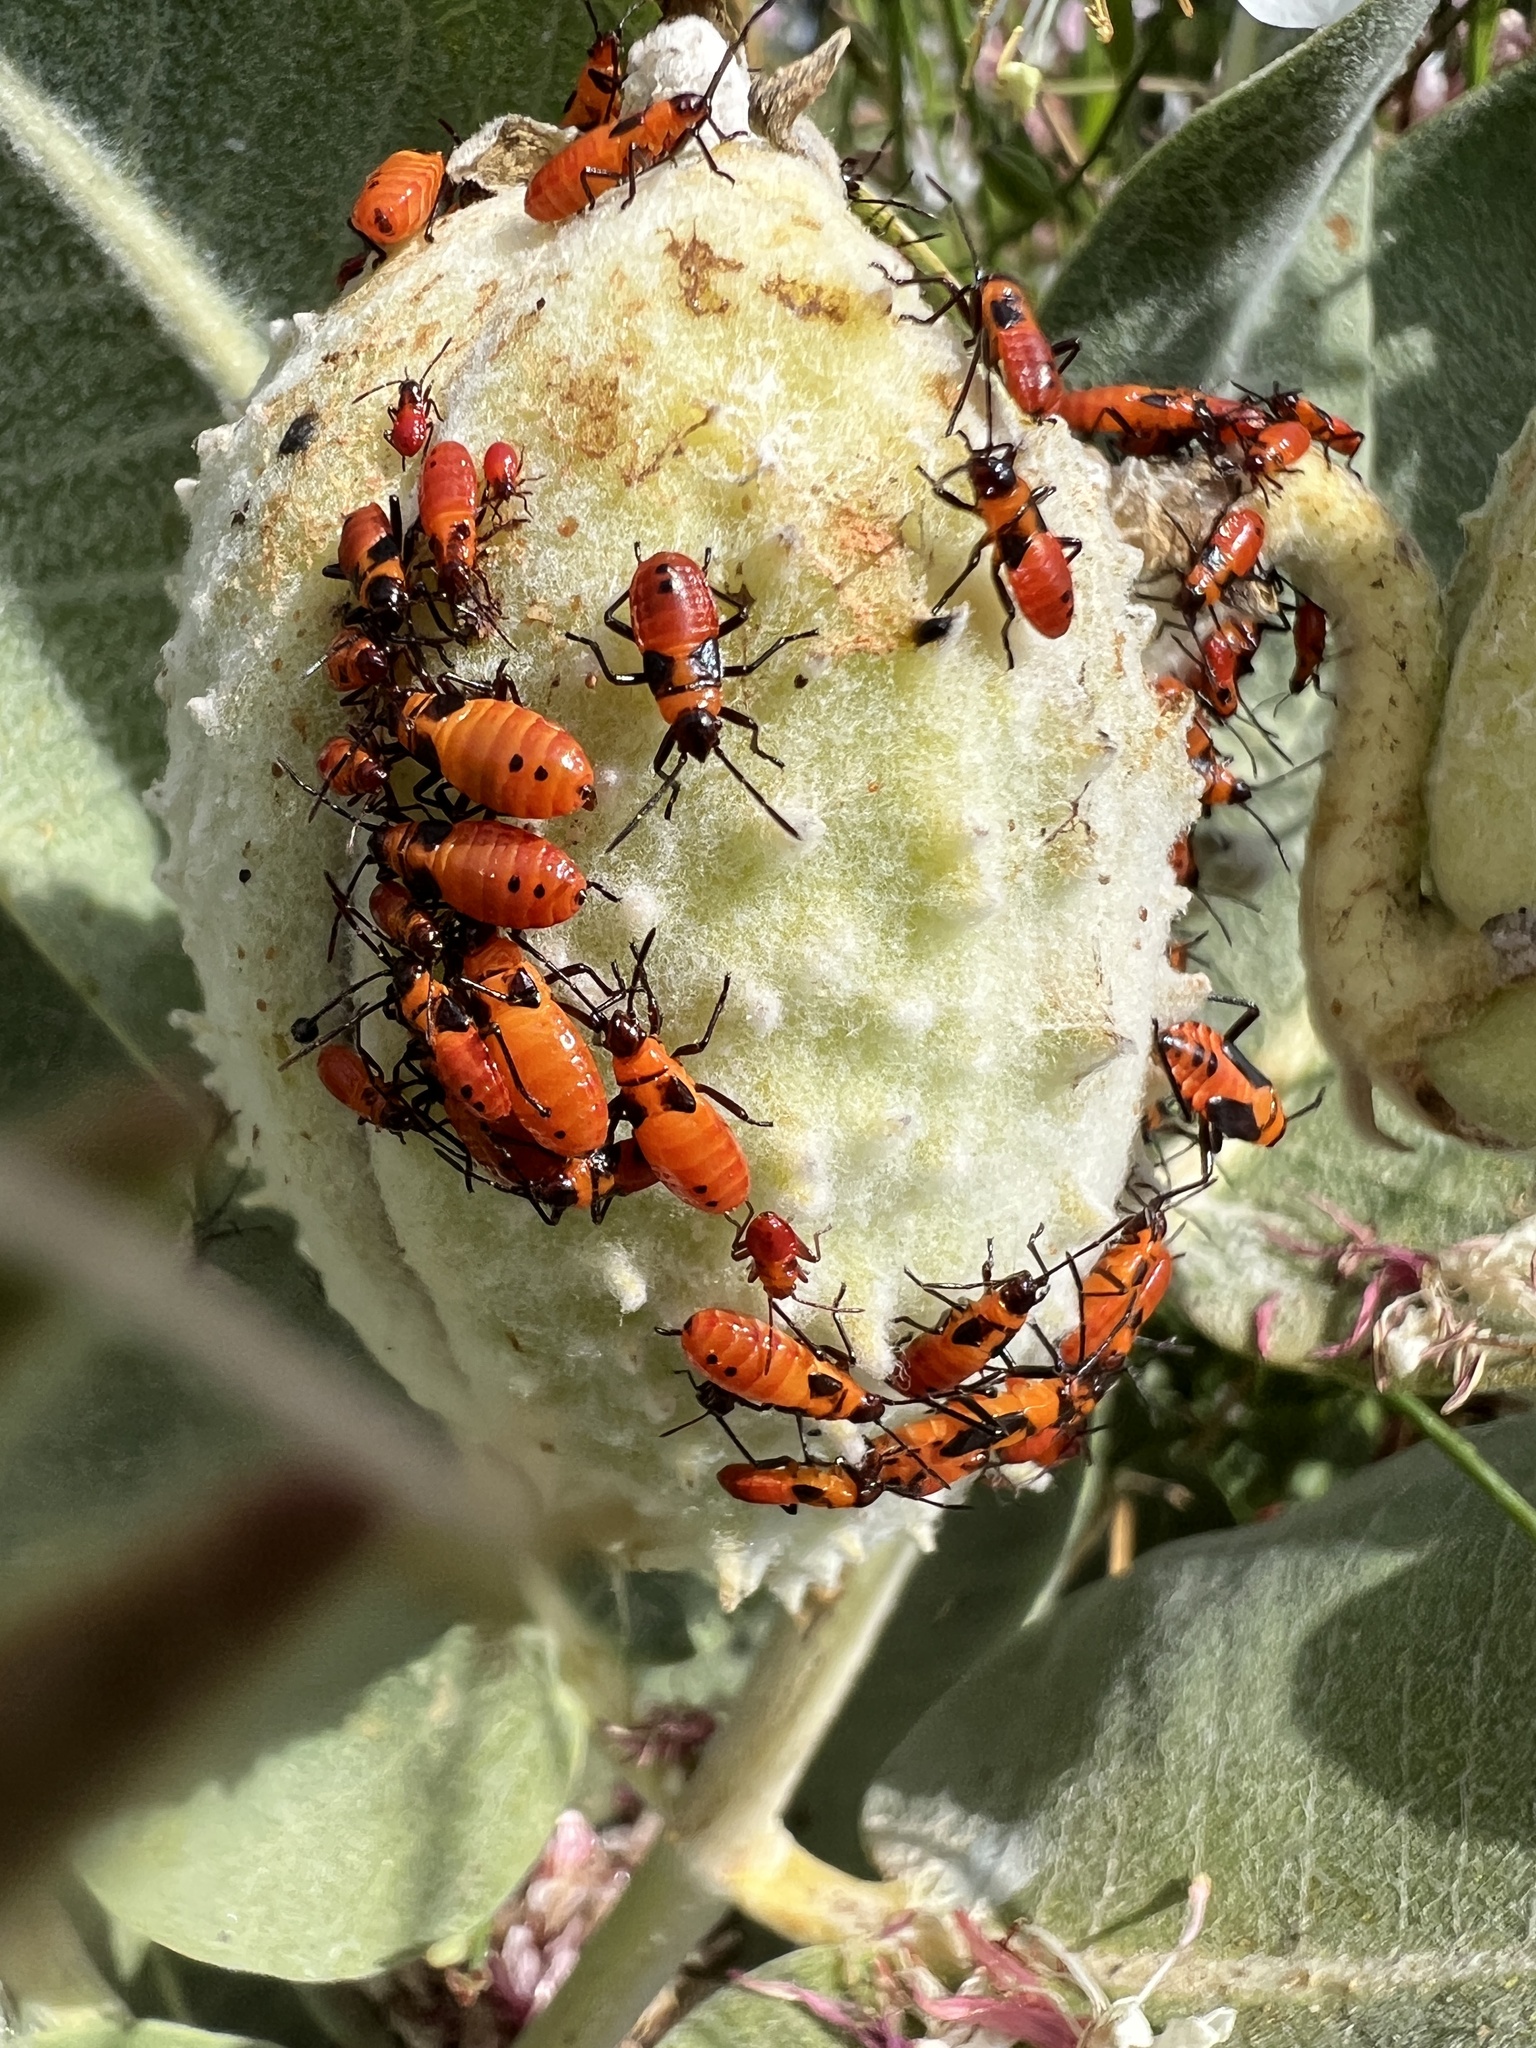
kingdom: Animalia
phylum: Arthropoda
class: Insecta
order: Hemiptera
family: Lygaeidae
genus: Oncopeltus
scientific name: Oncopeltus fasciatus
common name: Large milkweed bug
